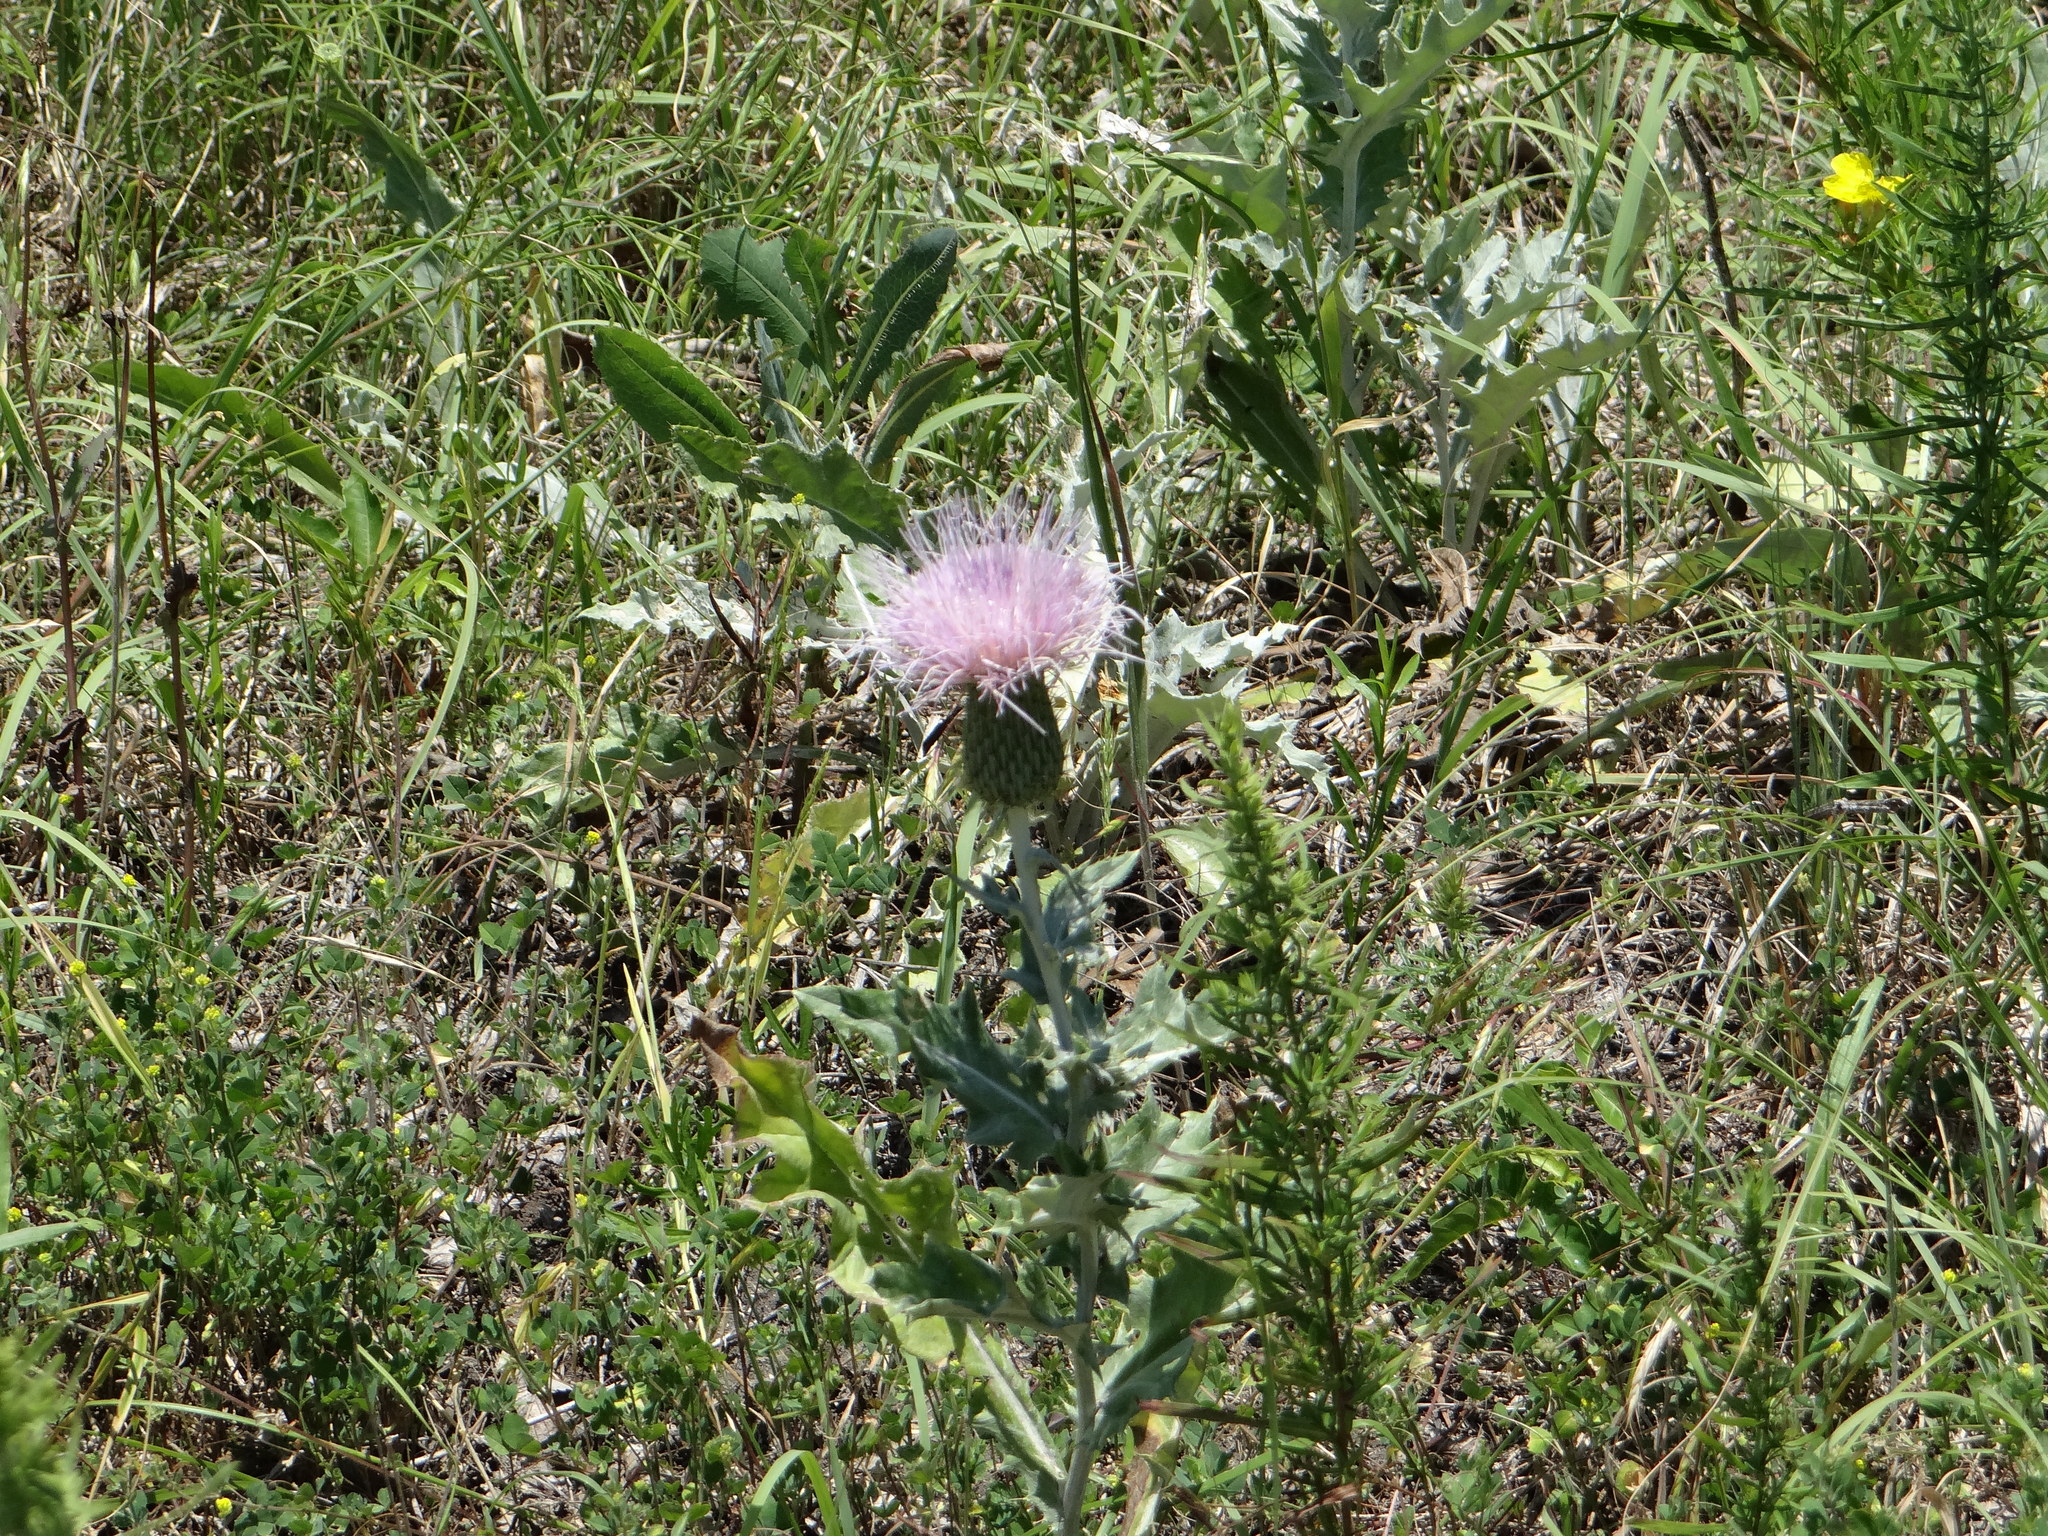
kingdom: Plantae
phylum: Tracheophyta
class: Magnoliopsida
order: Asterales
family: Asteraceae
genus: Cirsium
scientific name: Cirsium undulatum
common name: Pasture thistle
